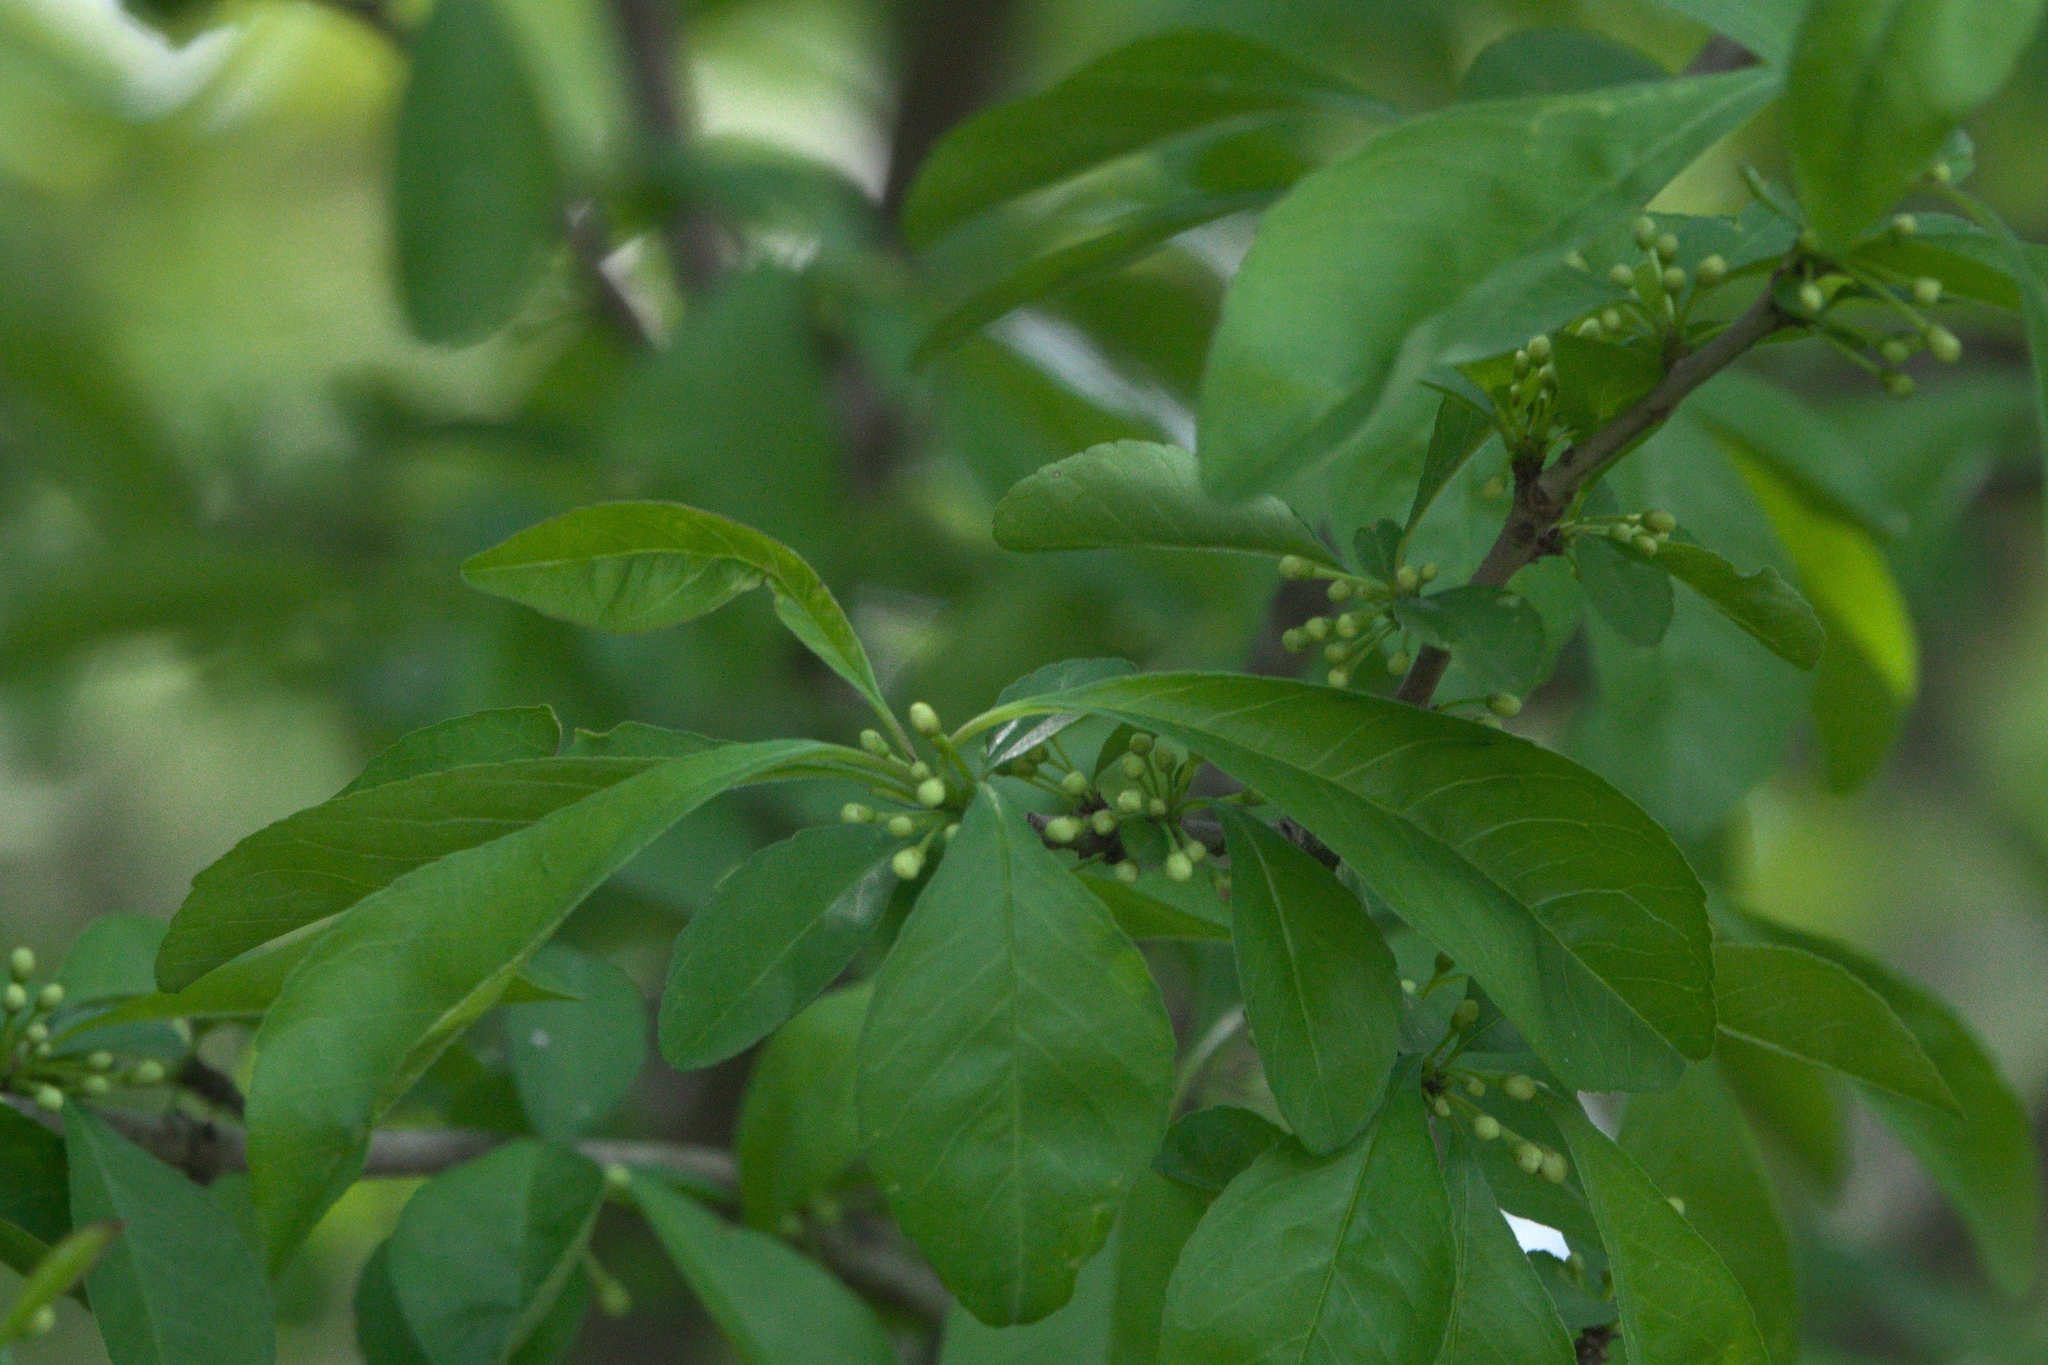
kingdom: Plantae
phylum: Tracheophyta
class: Magnoliopsida
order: Aquifoliales
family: Aquifoliaceae
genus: Ilex
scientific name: Ilex decidua
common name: Possum-haw
